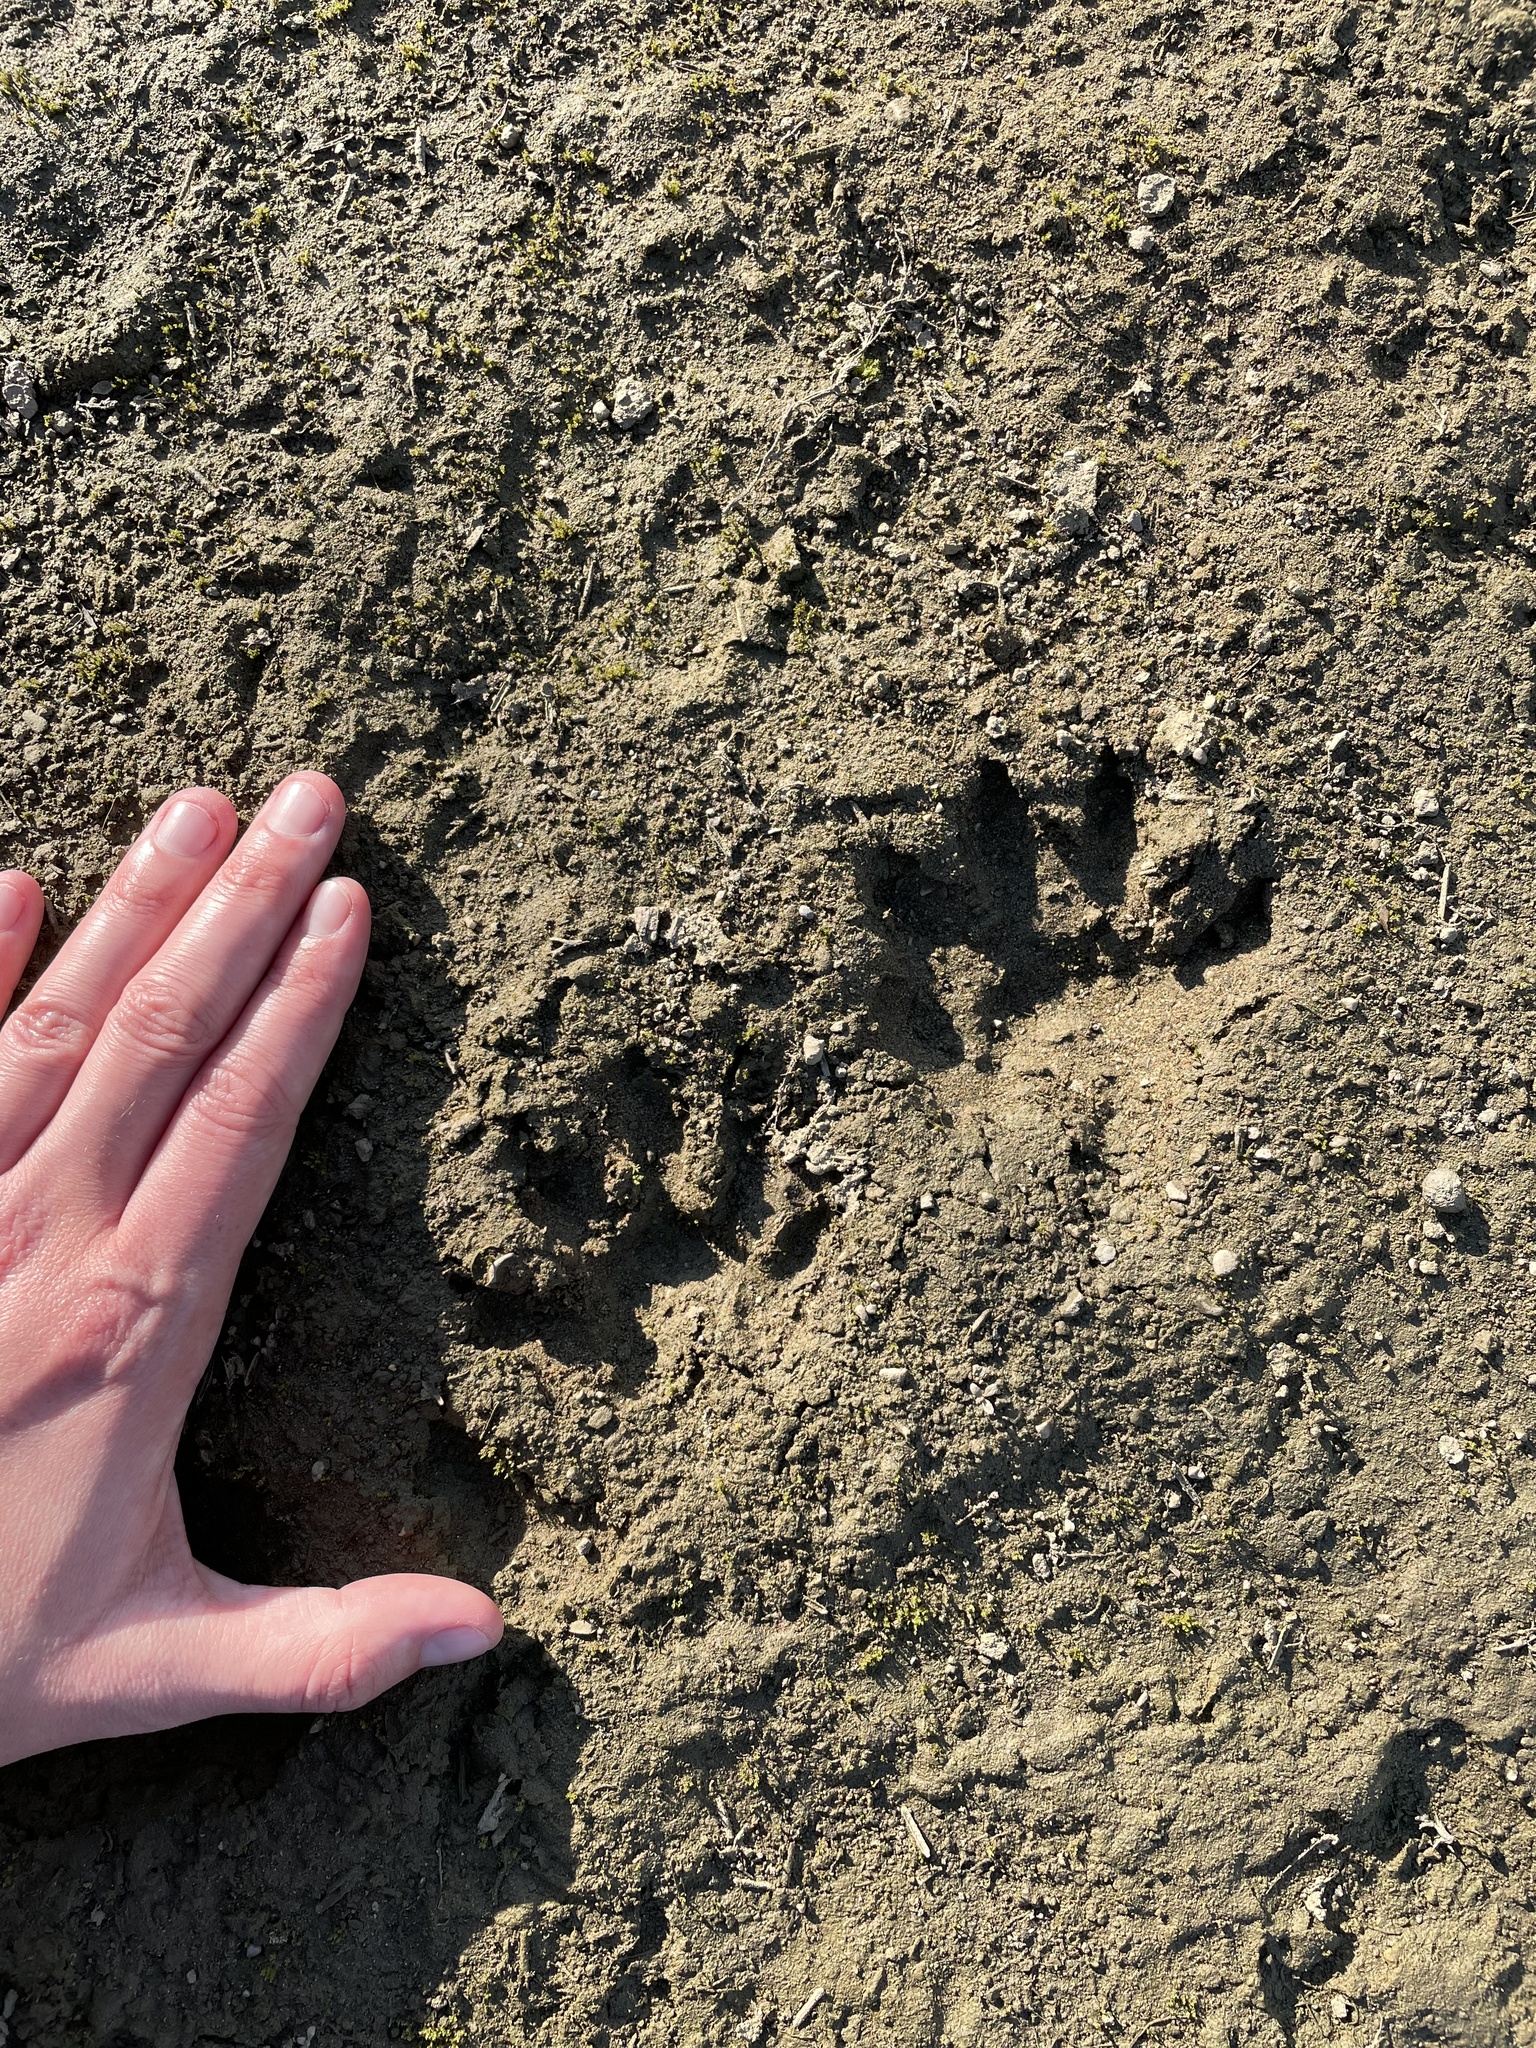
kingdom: Animalia
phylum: Chordata
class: Mammalia
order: Carnivora
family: Procyonidae
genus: Procyon
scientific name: Procyon lotor
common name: Raccoon
